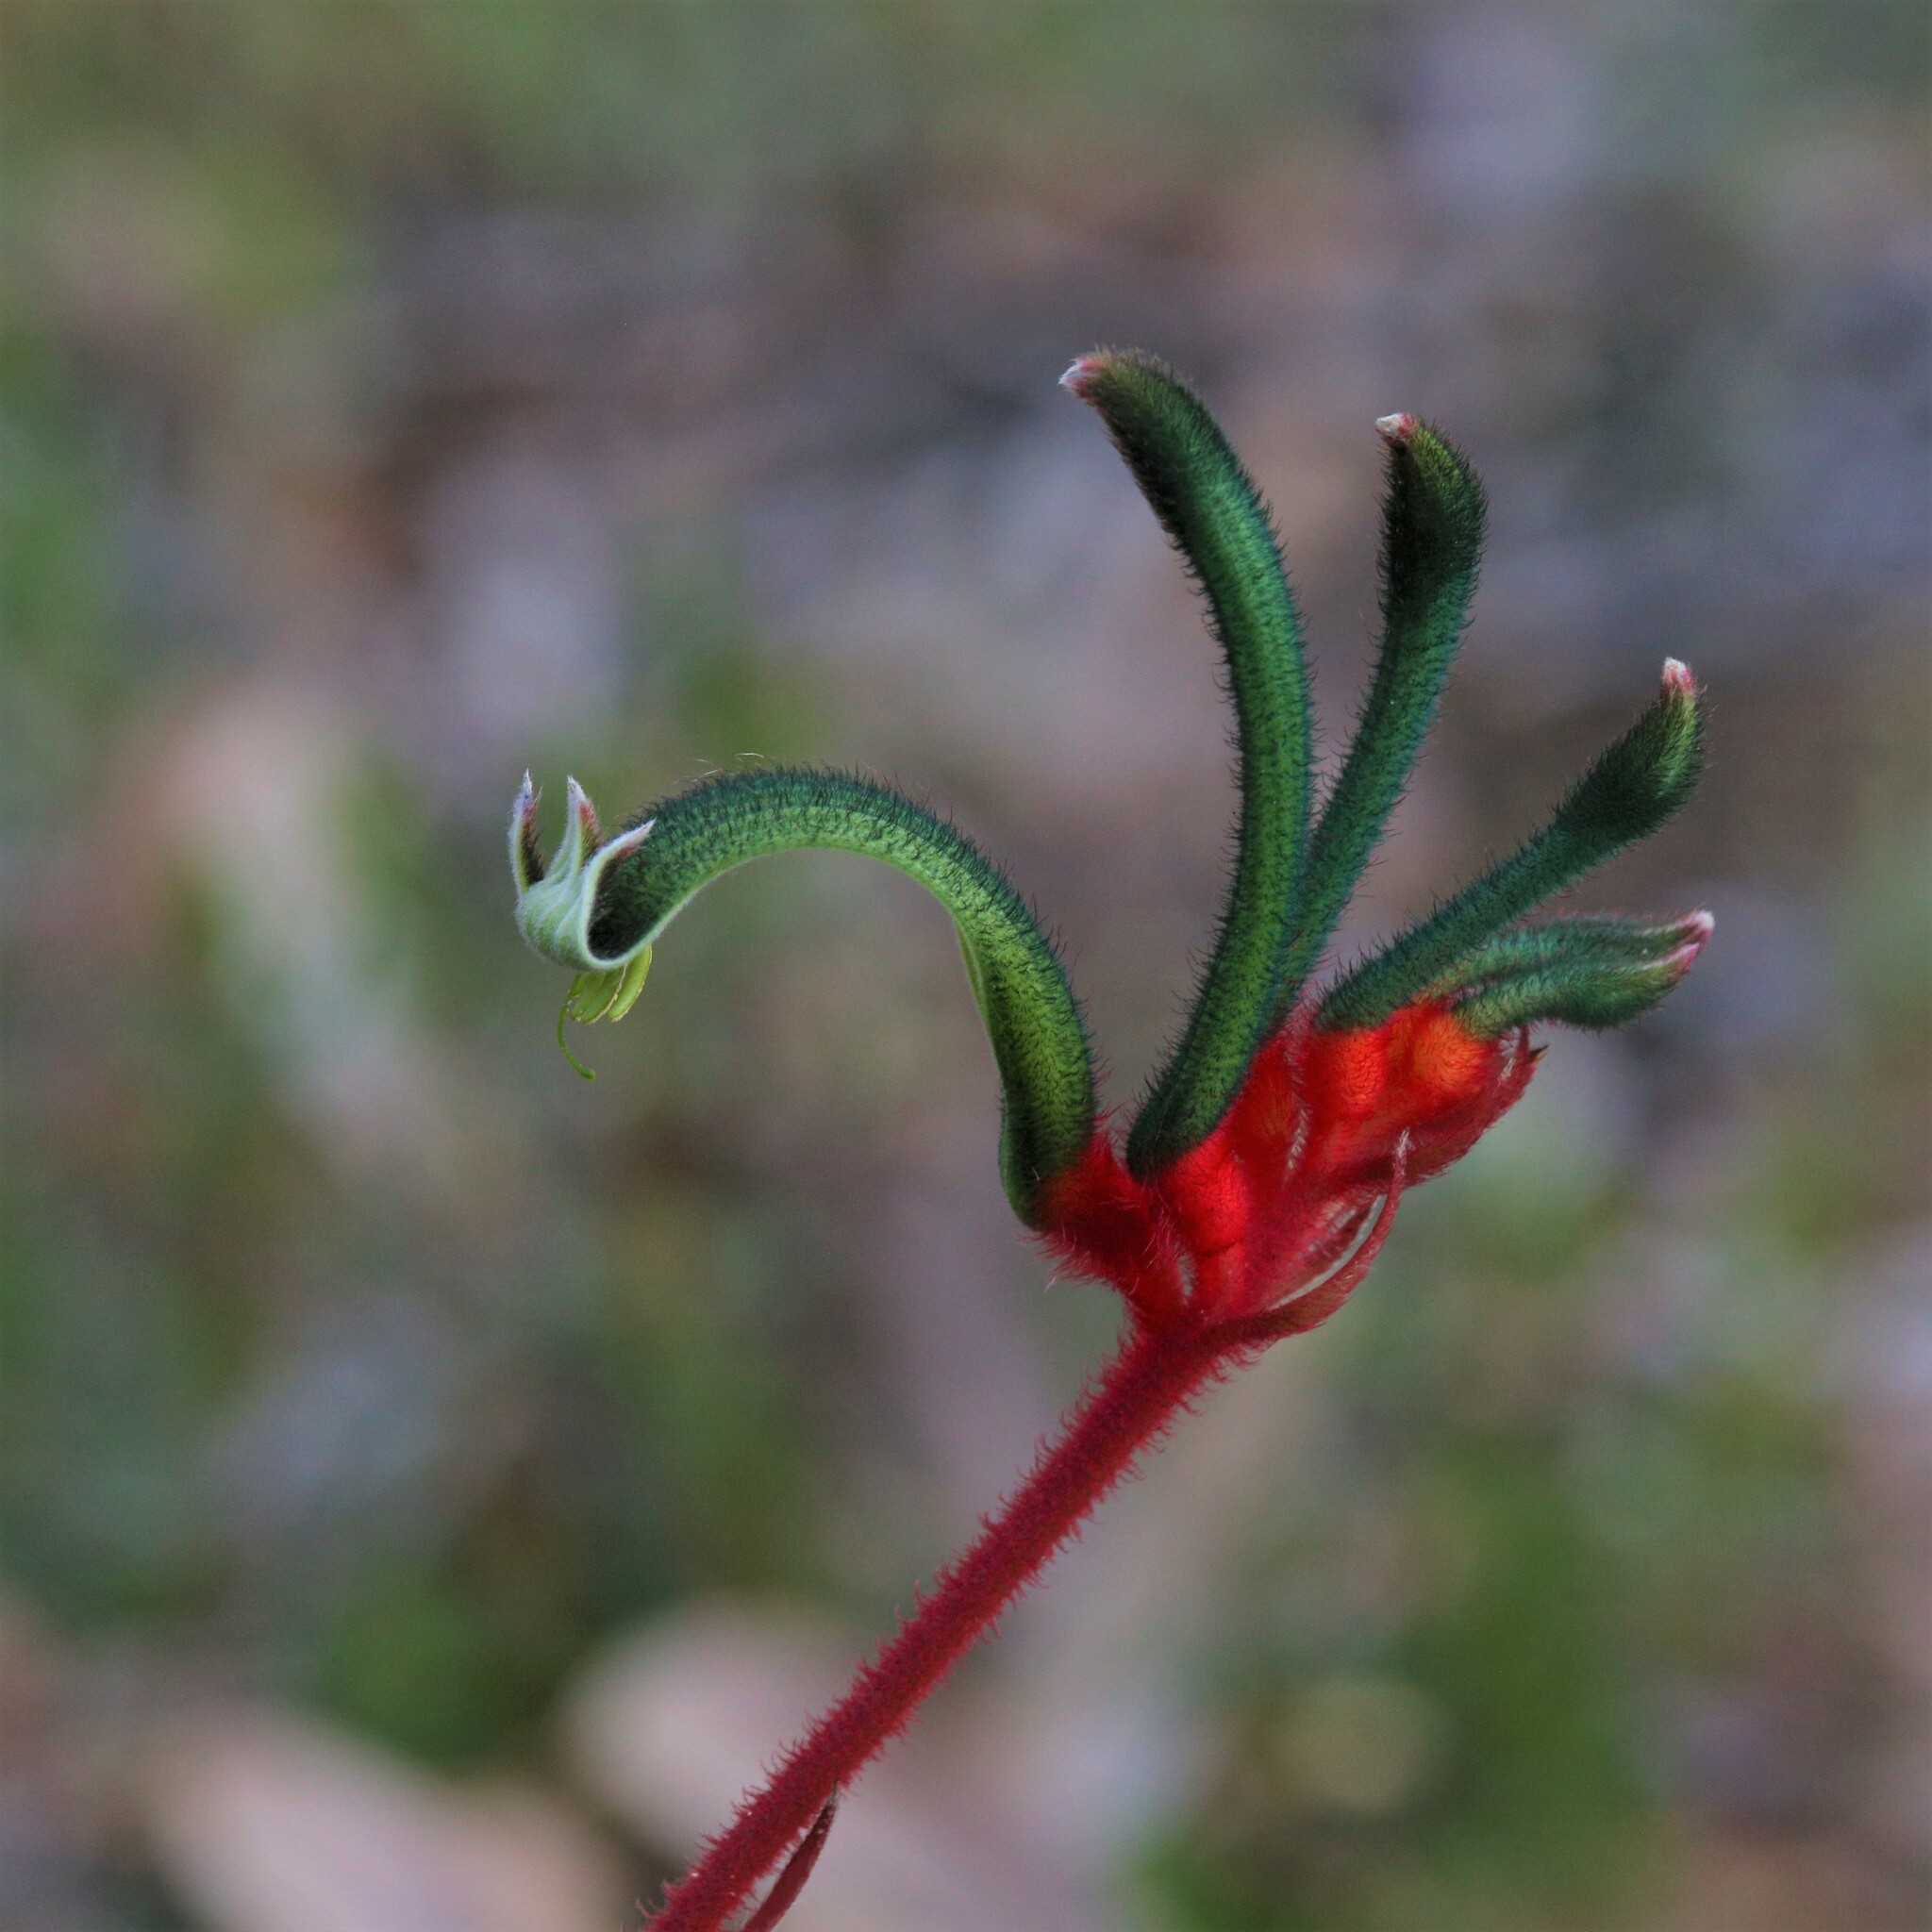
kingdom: Plantae
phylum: Tracheophyta
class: Liliopsida
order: Commelinales
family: Haemodoraceae
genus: Anigozanthos
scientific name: Anigozanthos manglesii
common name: Mangles's kangaroo-paw
